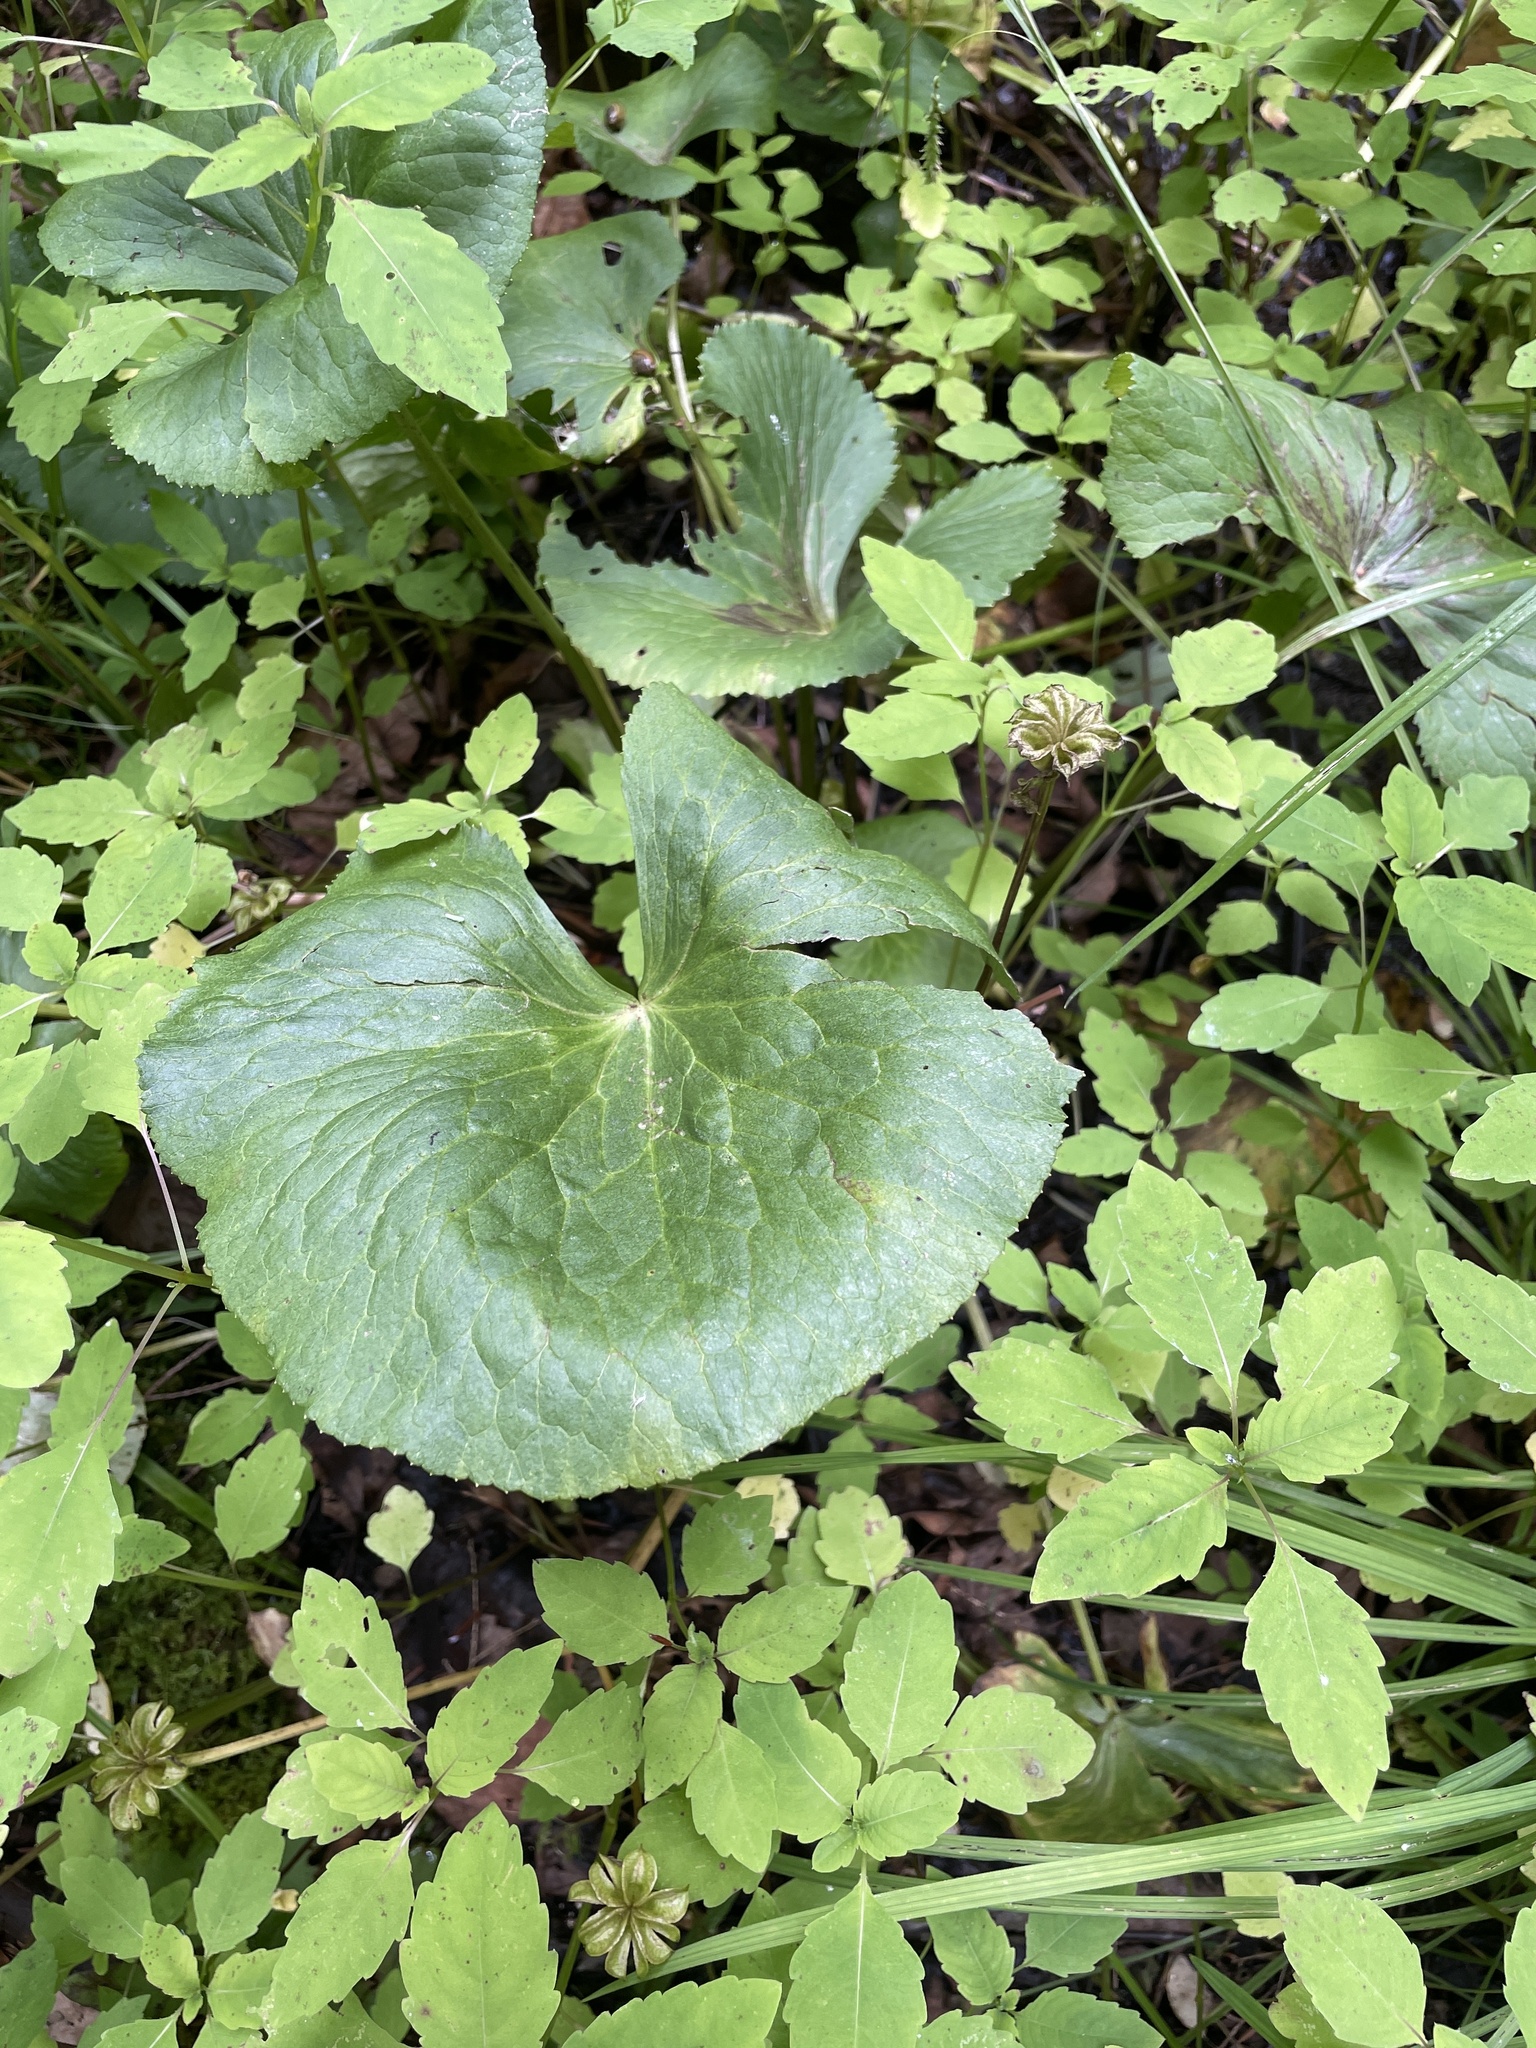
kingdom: Plantae
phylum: Tracheophyta
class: Magnoliopsida
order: Ranunculales
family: Ranunculaceae
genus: Caltha
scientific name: Caltha palustris
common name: Marsh marigold
